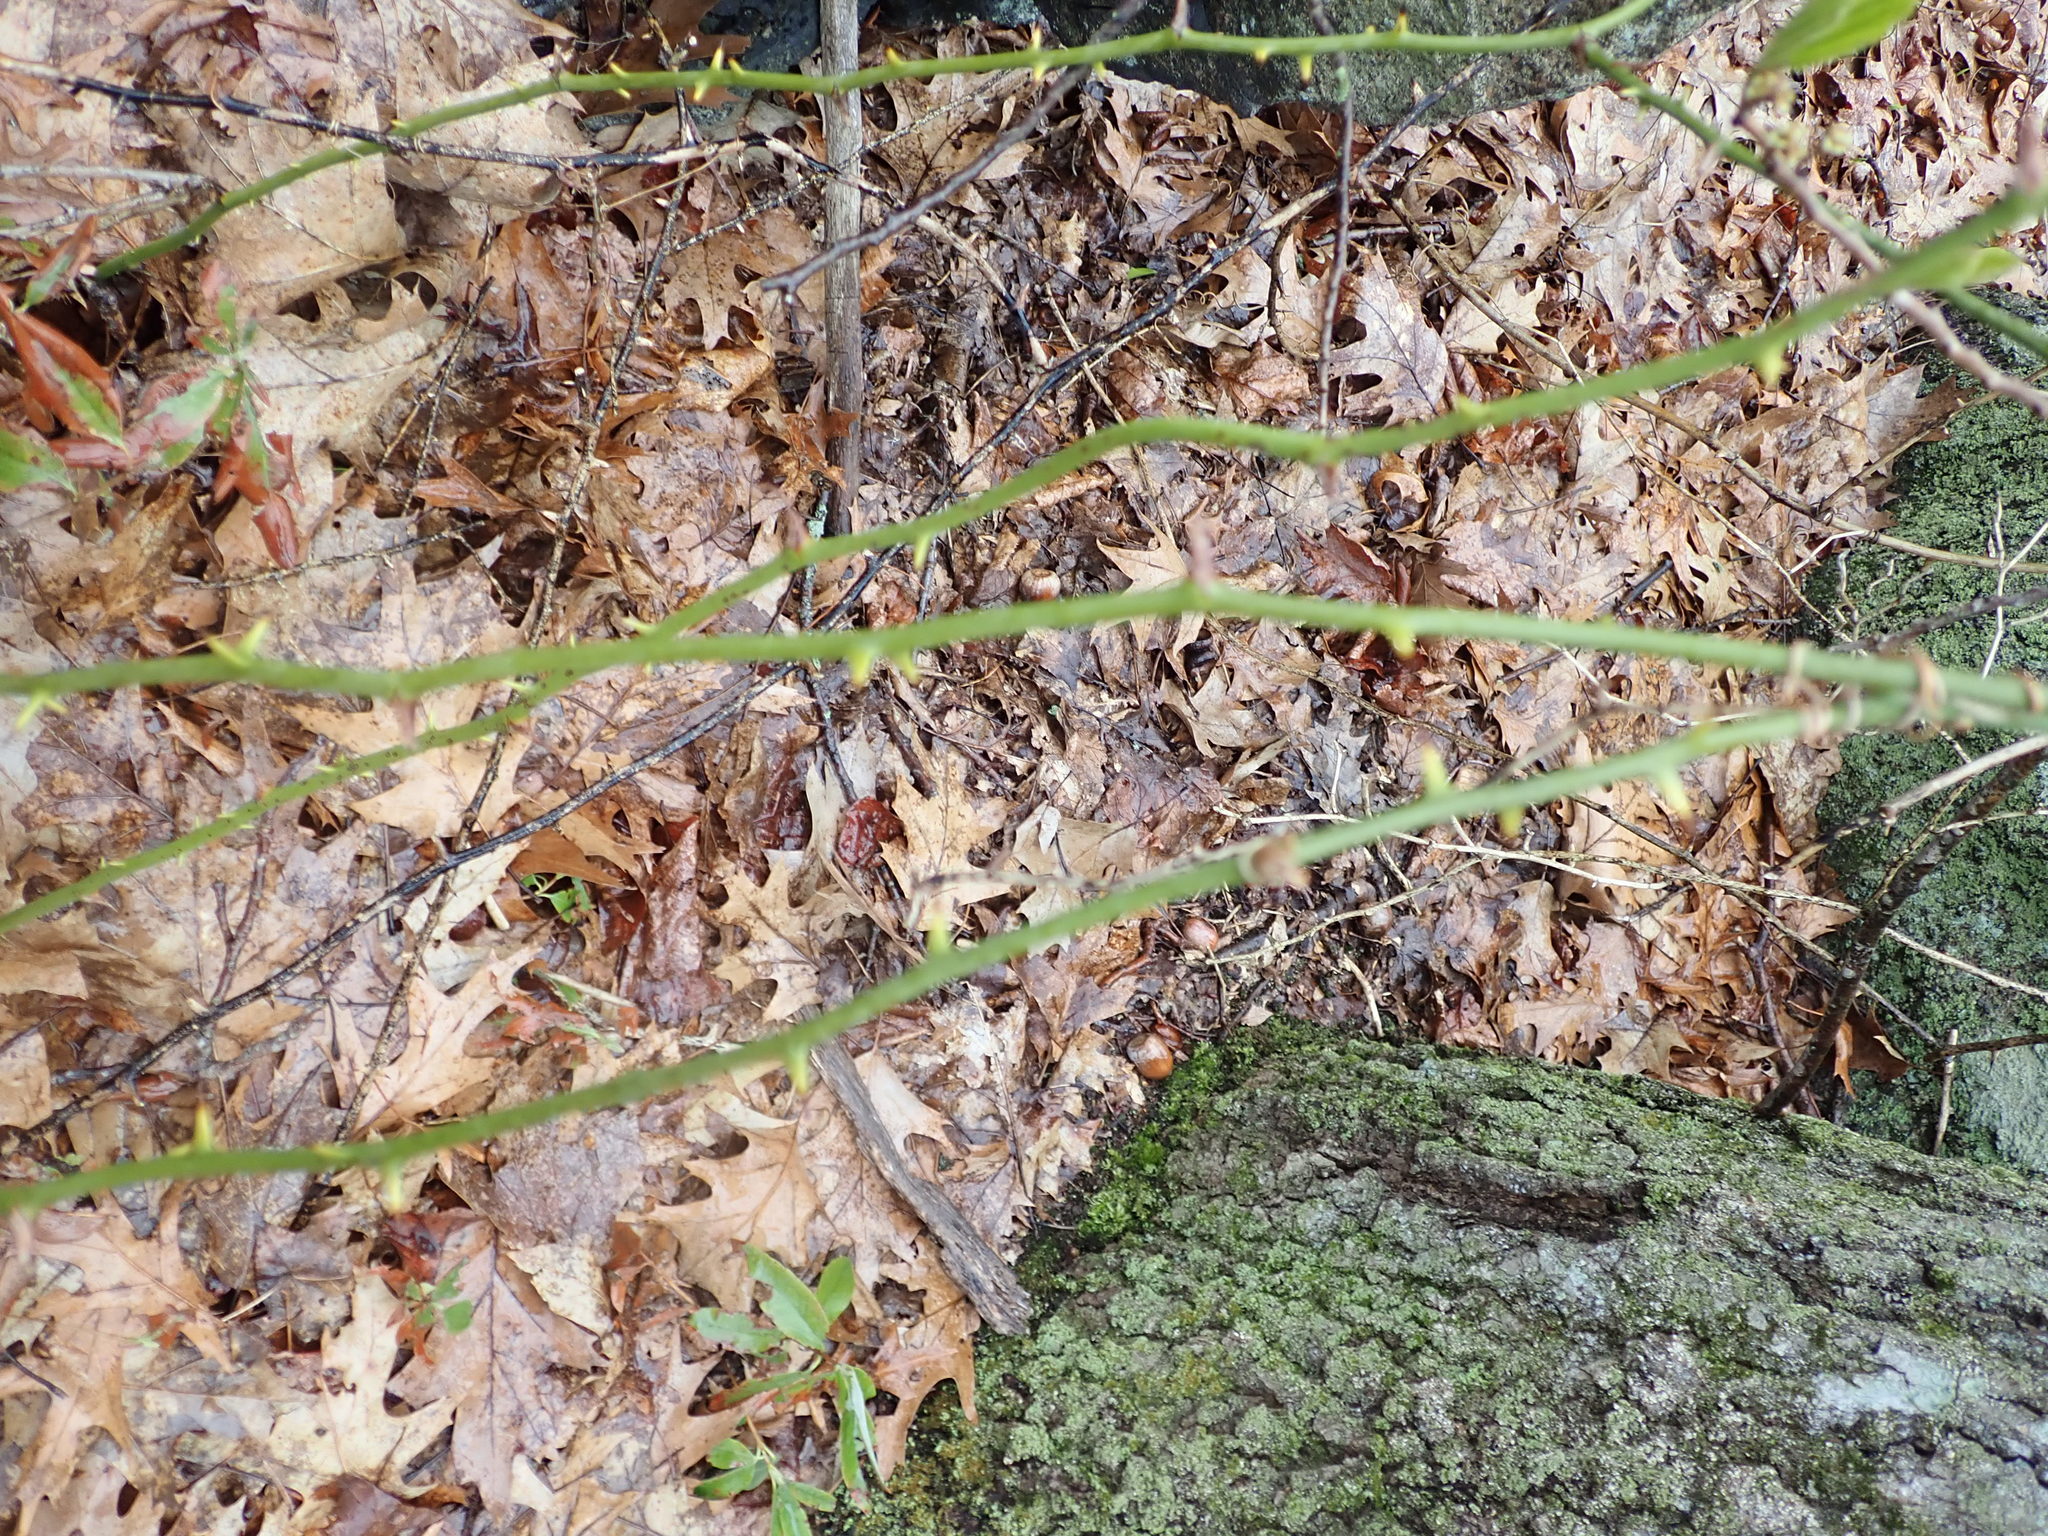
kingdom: Plantae
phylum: Tracheophyta
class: Liliopsida
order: Liliales
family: Smilacaceae
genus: Smilax
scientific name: Smilax rotundifolia
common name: Bullbriar
